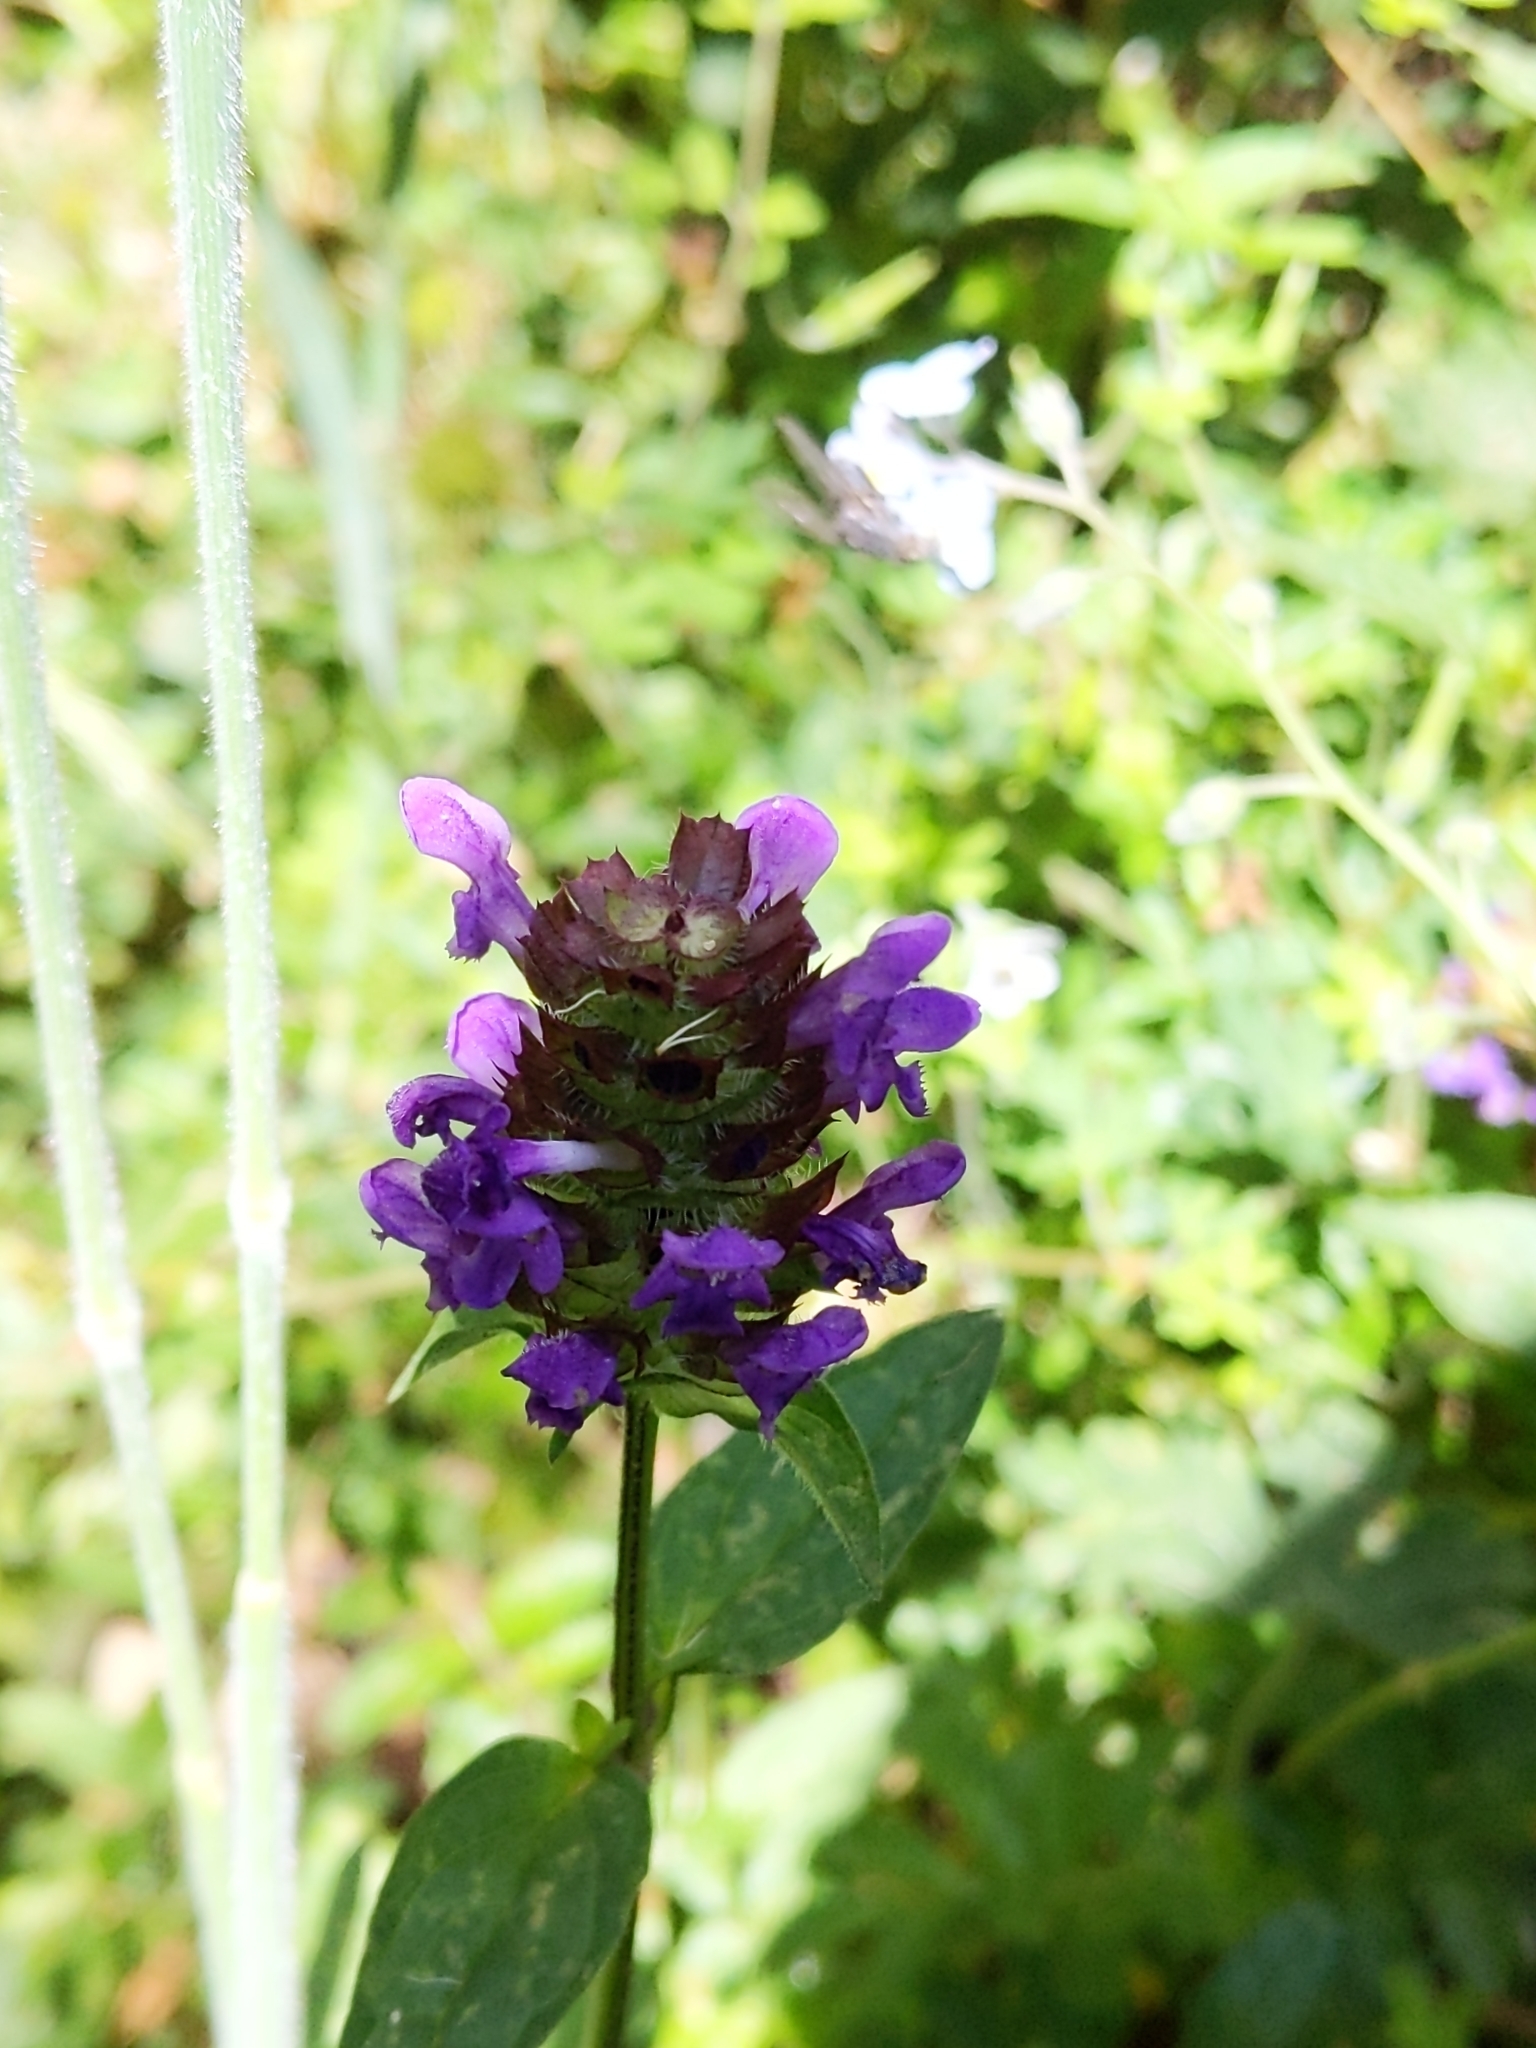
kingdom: Plantae
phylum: Tracheophyta
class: Magnoliopsida
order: Lamiales
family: Lamiaceae
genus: Prunella
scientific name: Prunella vulgaris
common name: Heal-all
